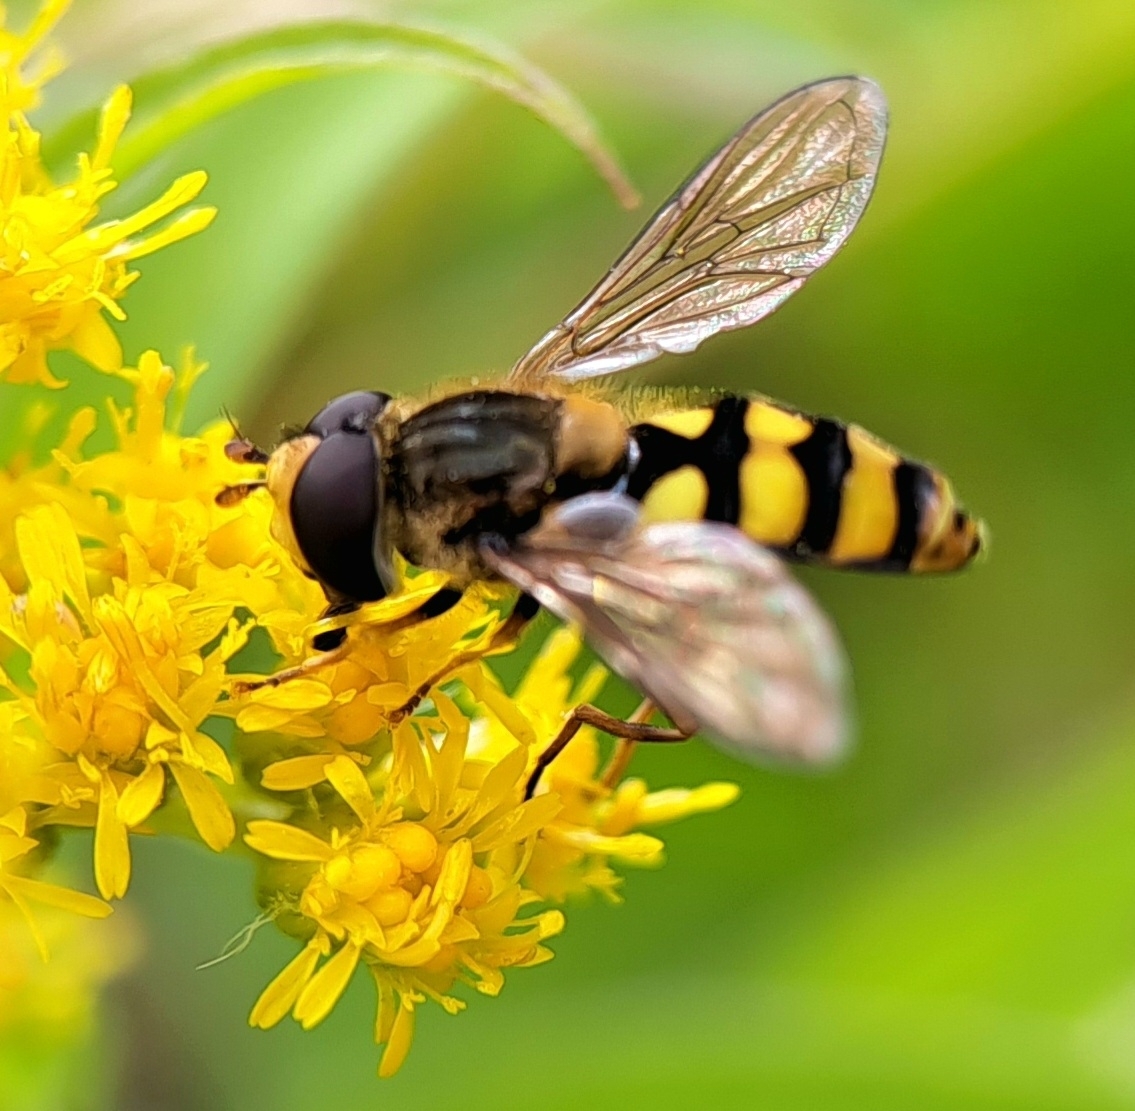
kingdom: Animalia
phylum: Arthropoda
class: Insecta
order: Diptera
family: Syrphidae
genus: Eupeodes
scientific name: Eupeodes latifasciatus
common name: Variable aphideater
